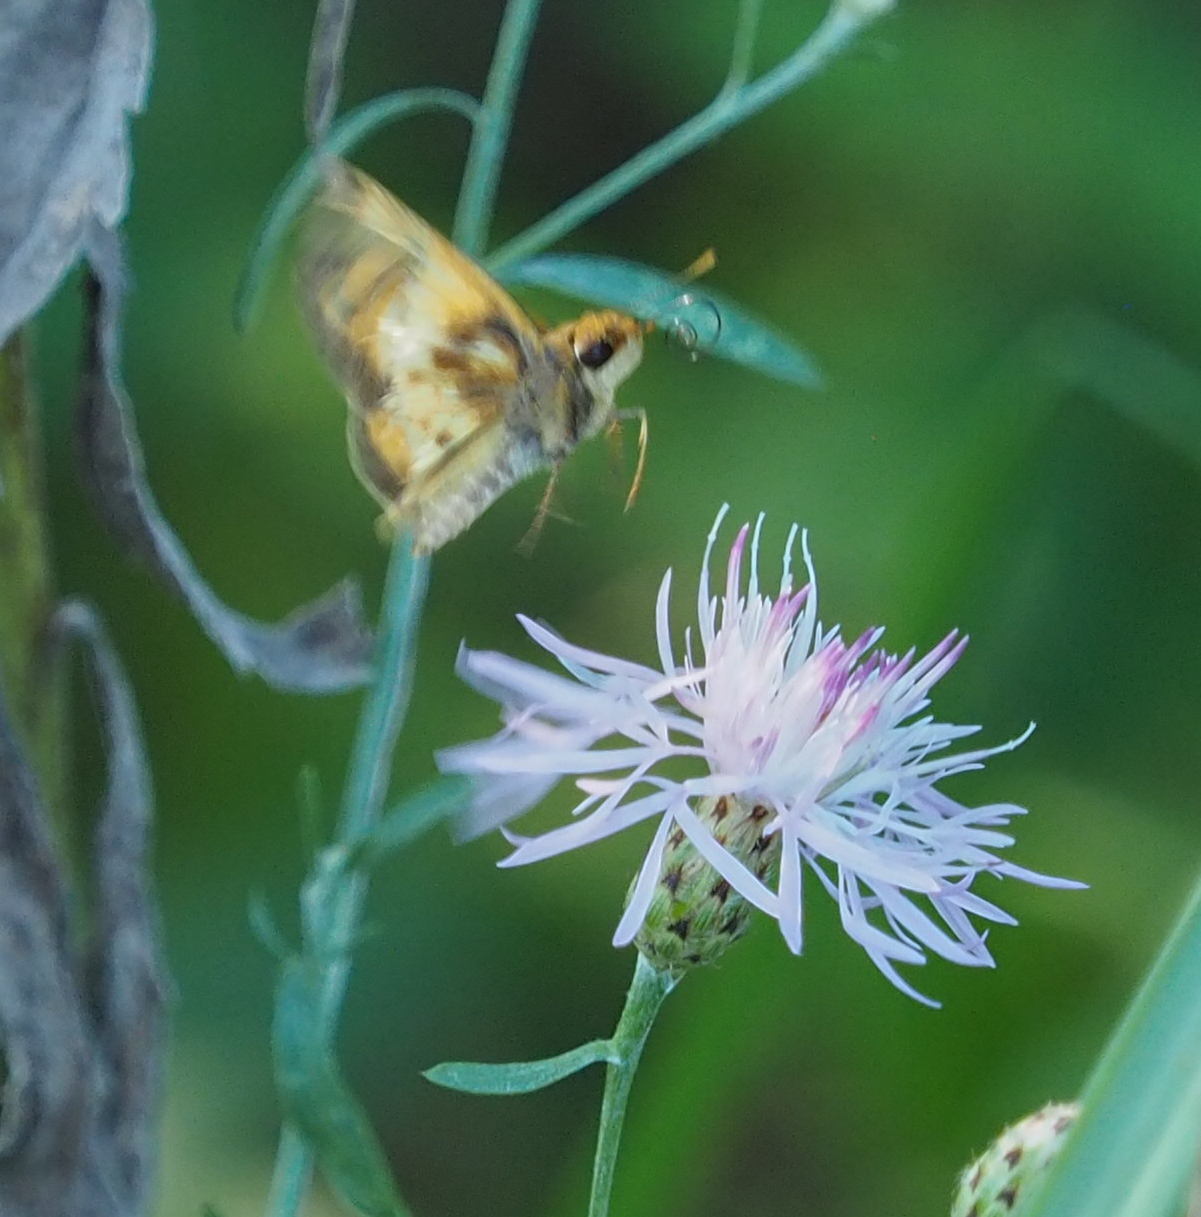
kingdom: Animalia
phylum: Arthropoda
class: Insecta
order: Lepidoptera
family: Hesperiidae
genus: Lon
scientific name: Lon zabulon
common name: Zabulon skipper
